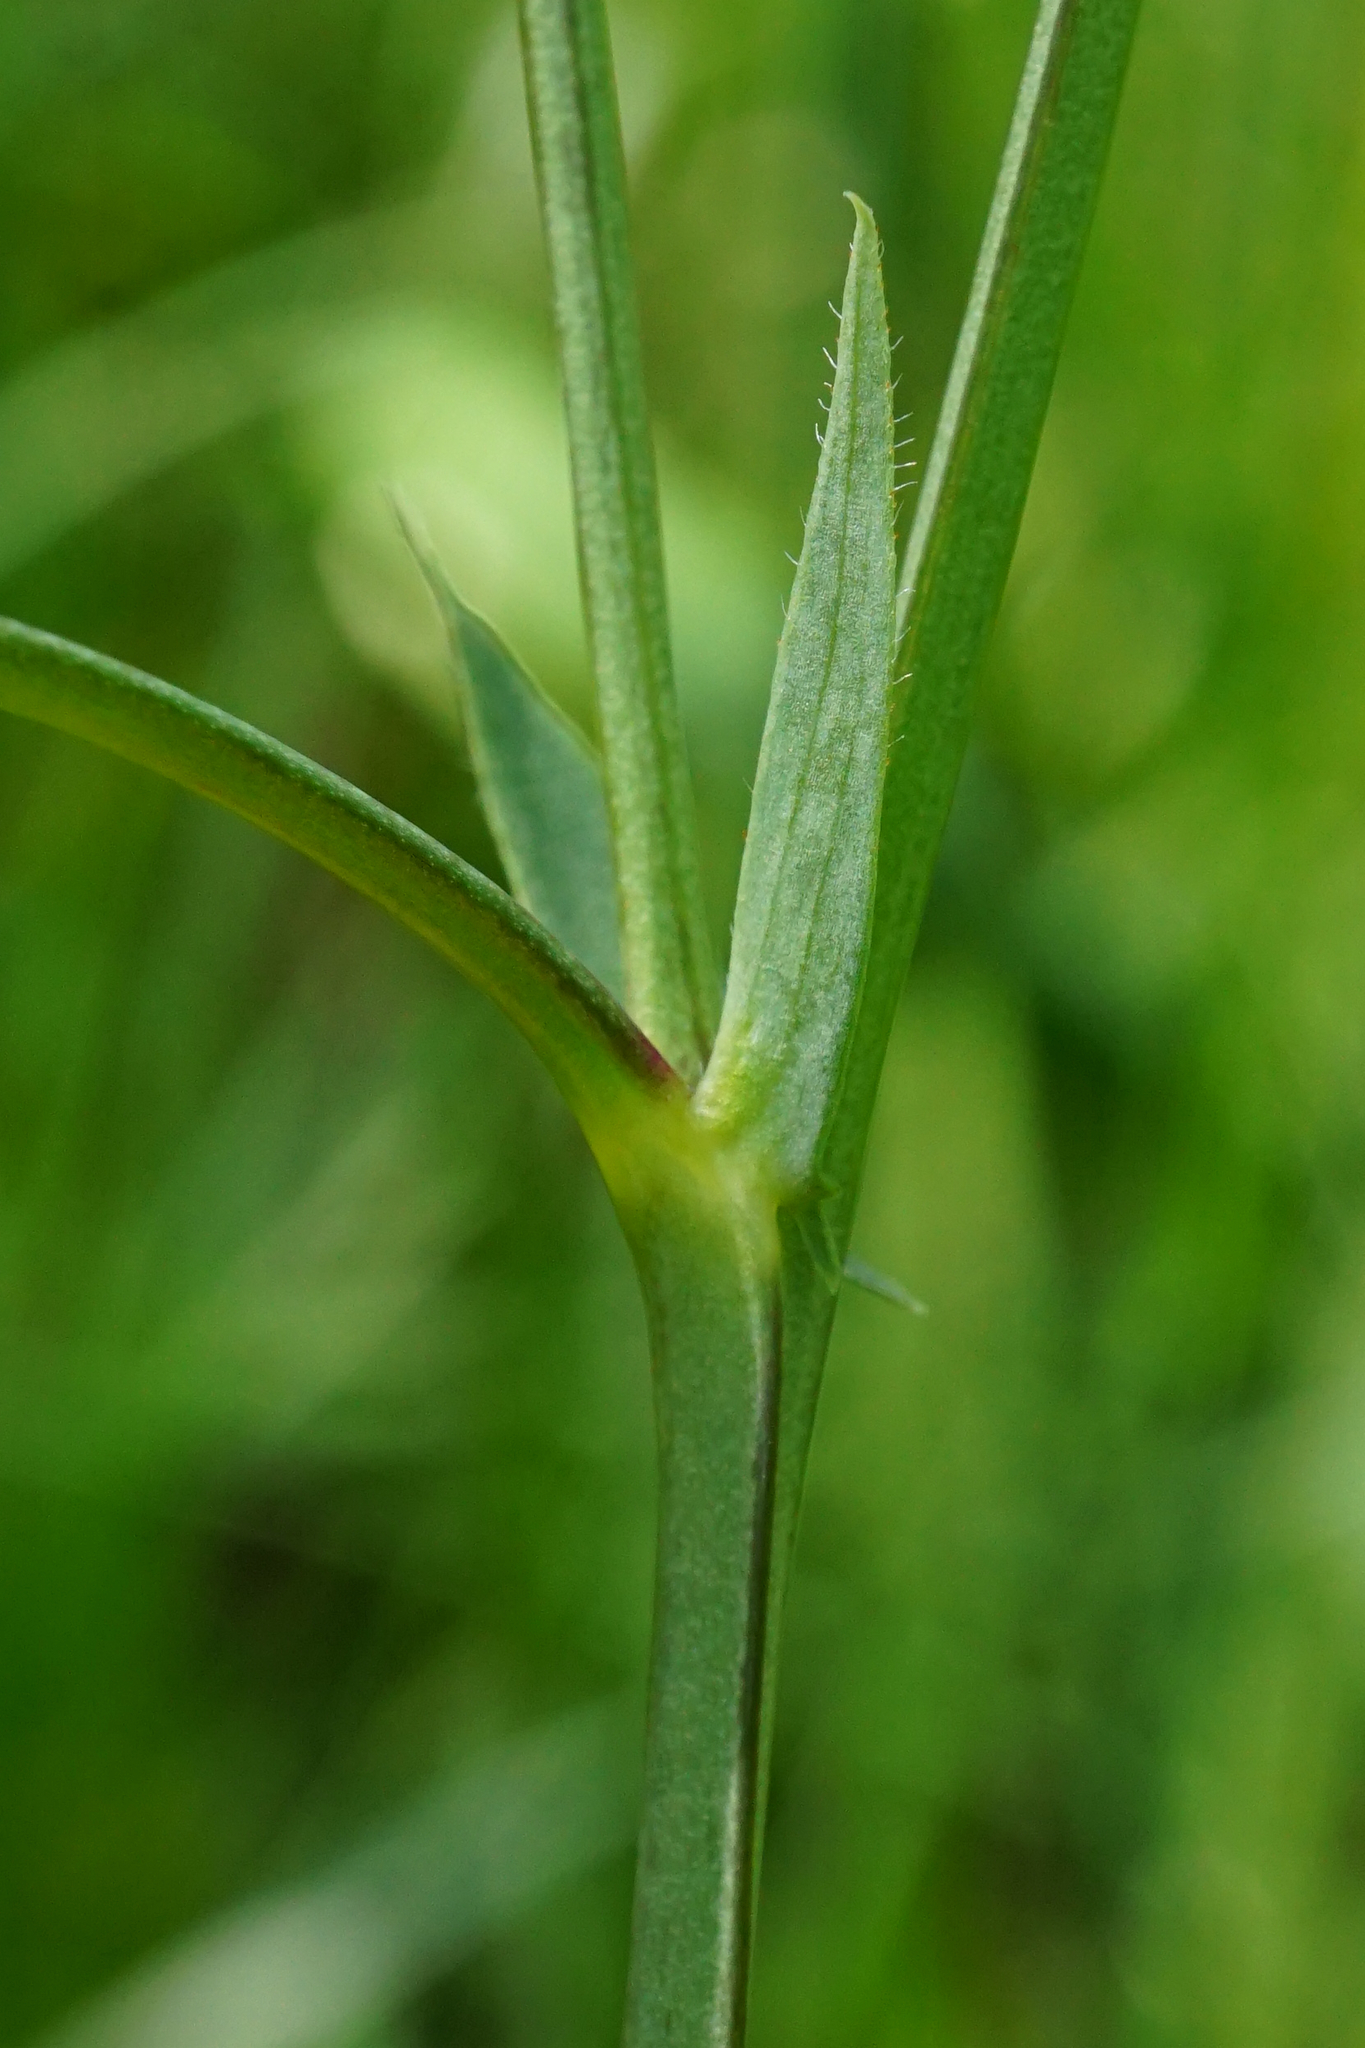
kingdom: Plantae
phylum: Tracheophyta
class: Magnoliopsida
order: Fabales
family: Fabaceae
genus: Lathyrus
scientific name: Lathyrus pannonicus
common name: Pea
